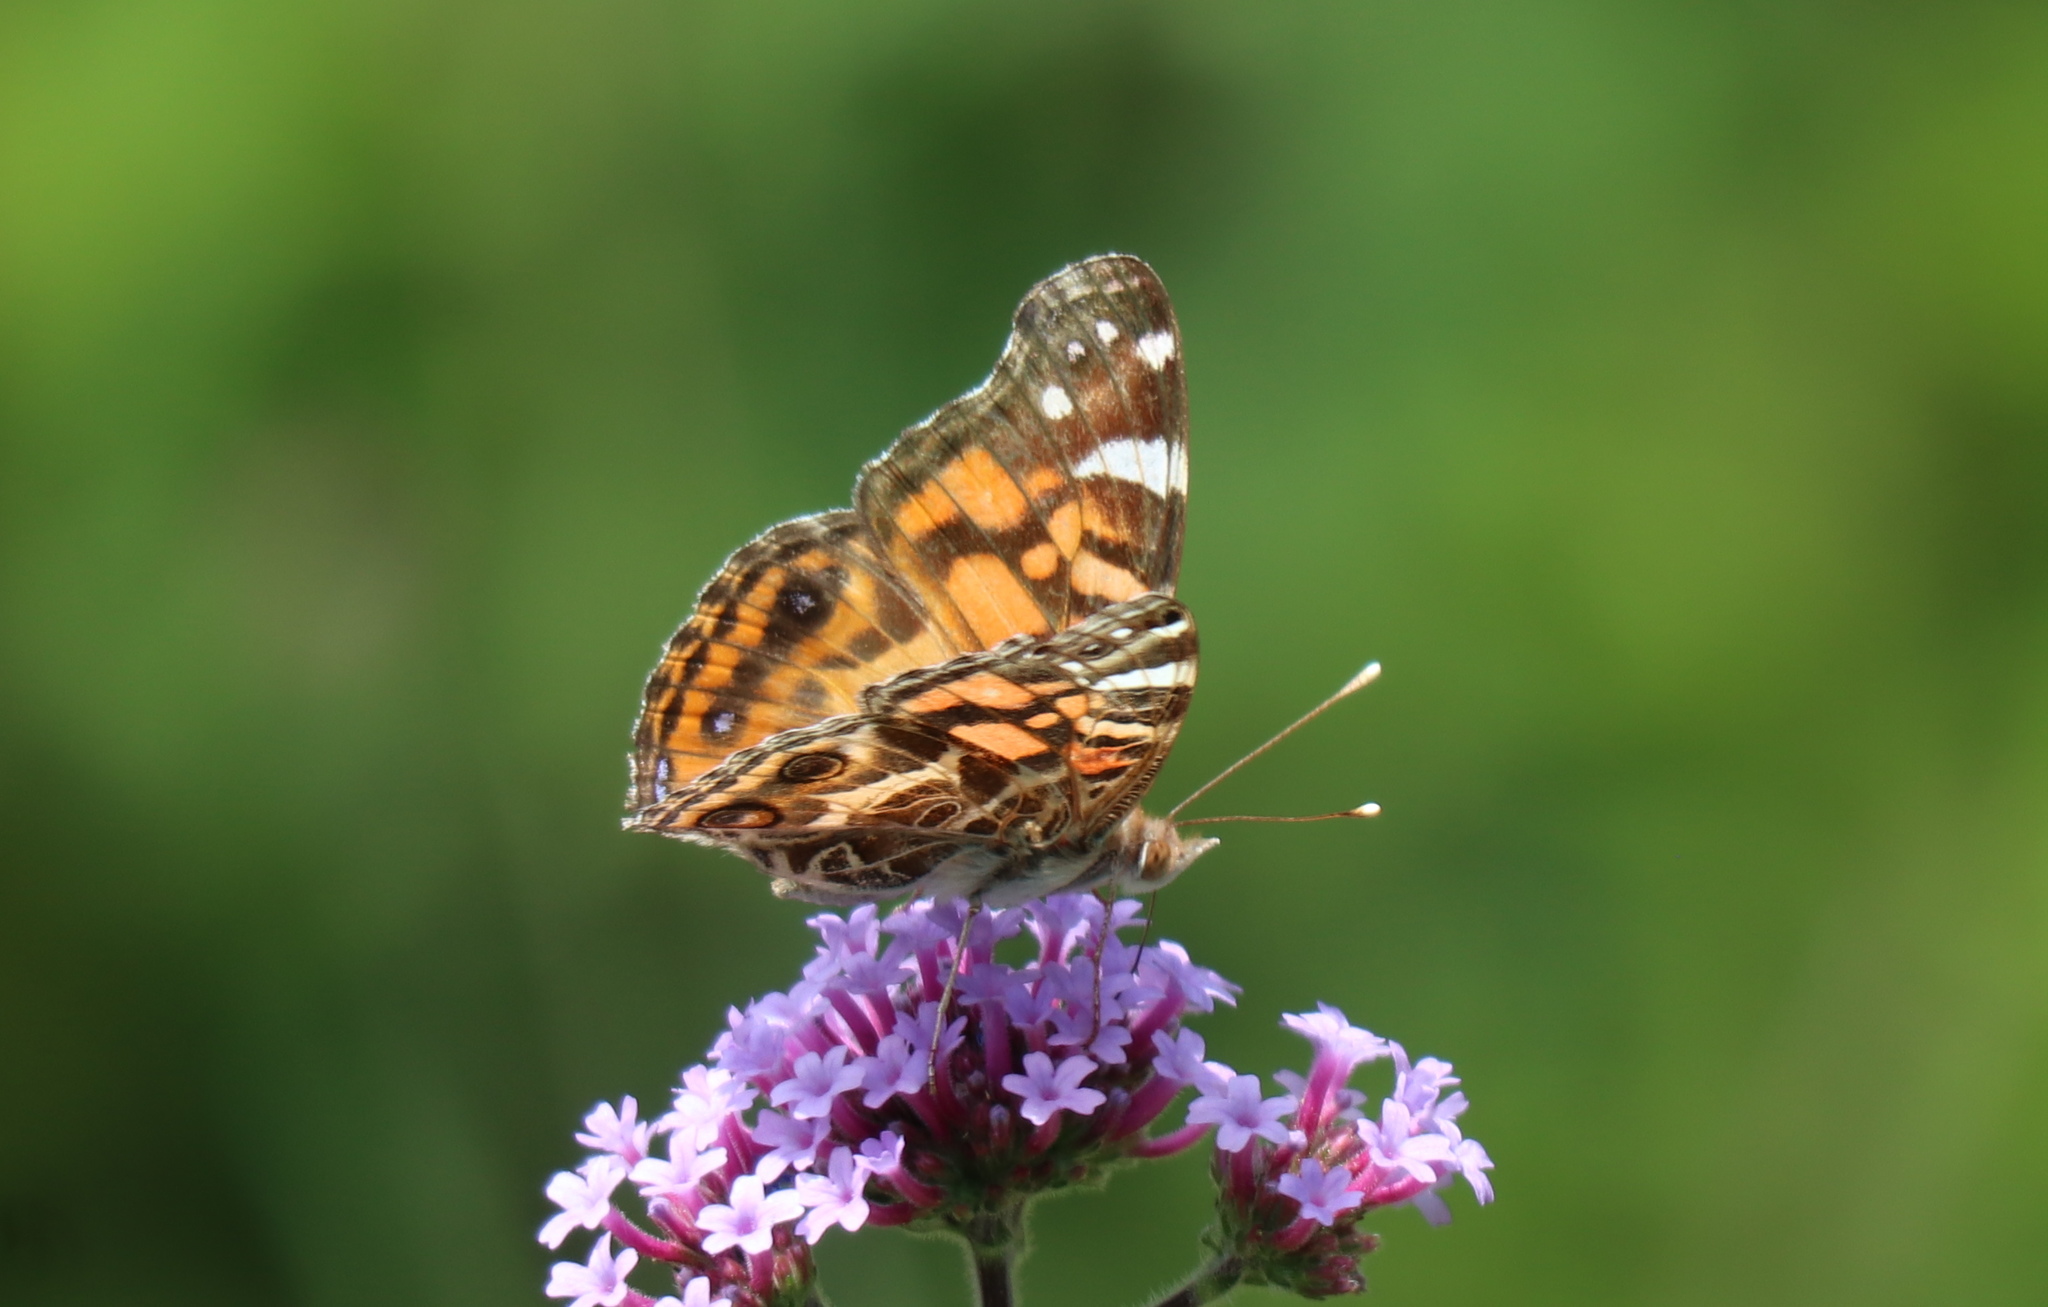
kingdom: Animalia
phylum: Arthropoda
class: Insecta
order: Lepidoptera
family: Nymphalidae
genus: Vanessa
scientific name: Vanessa virginiensis
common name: American lady
